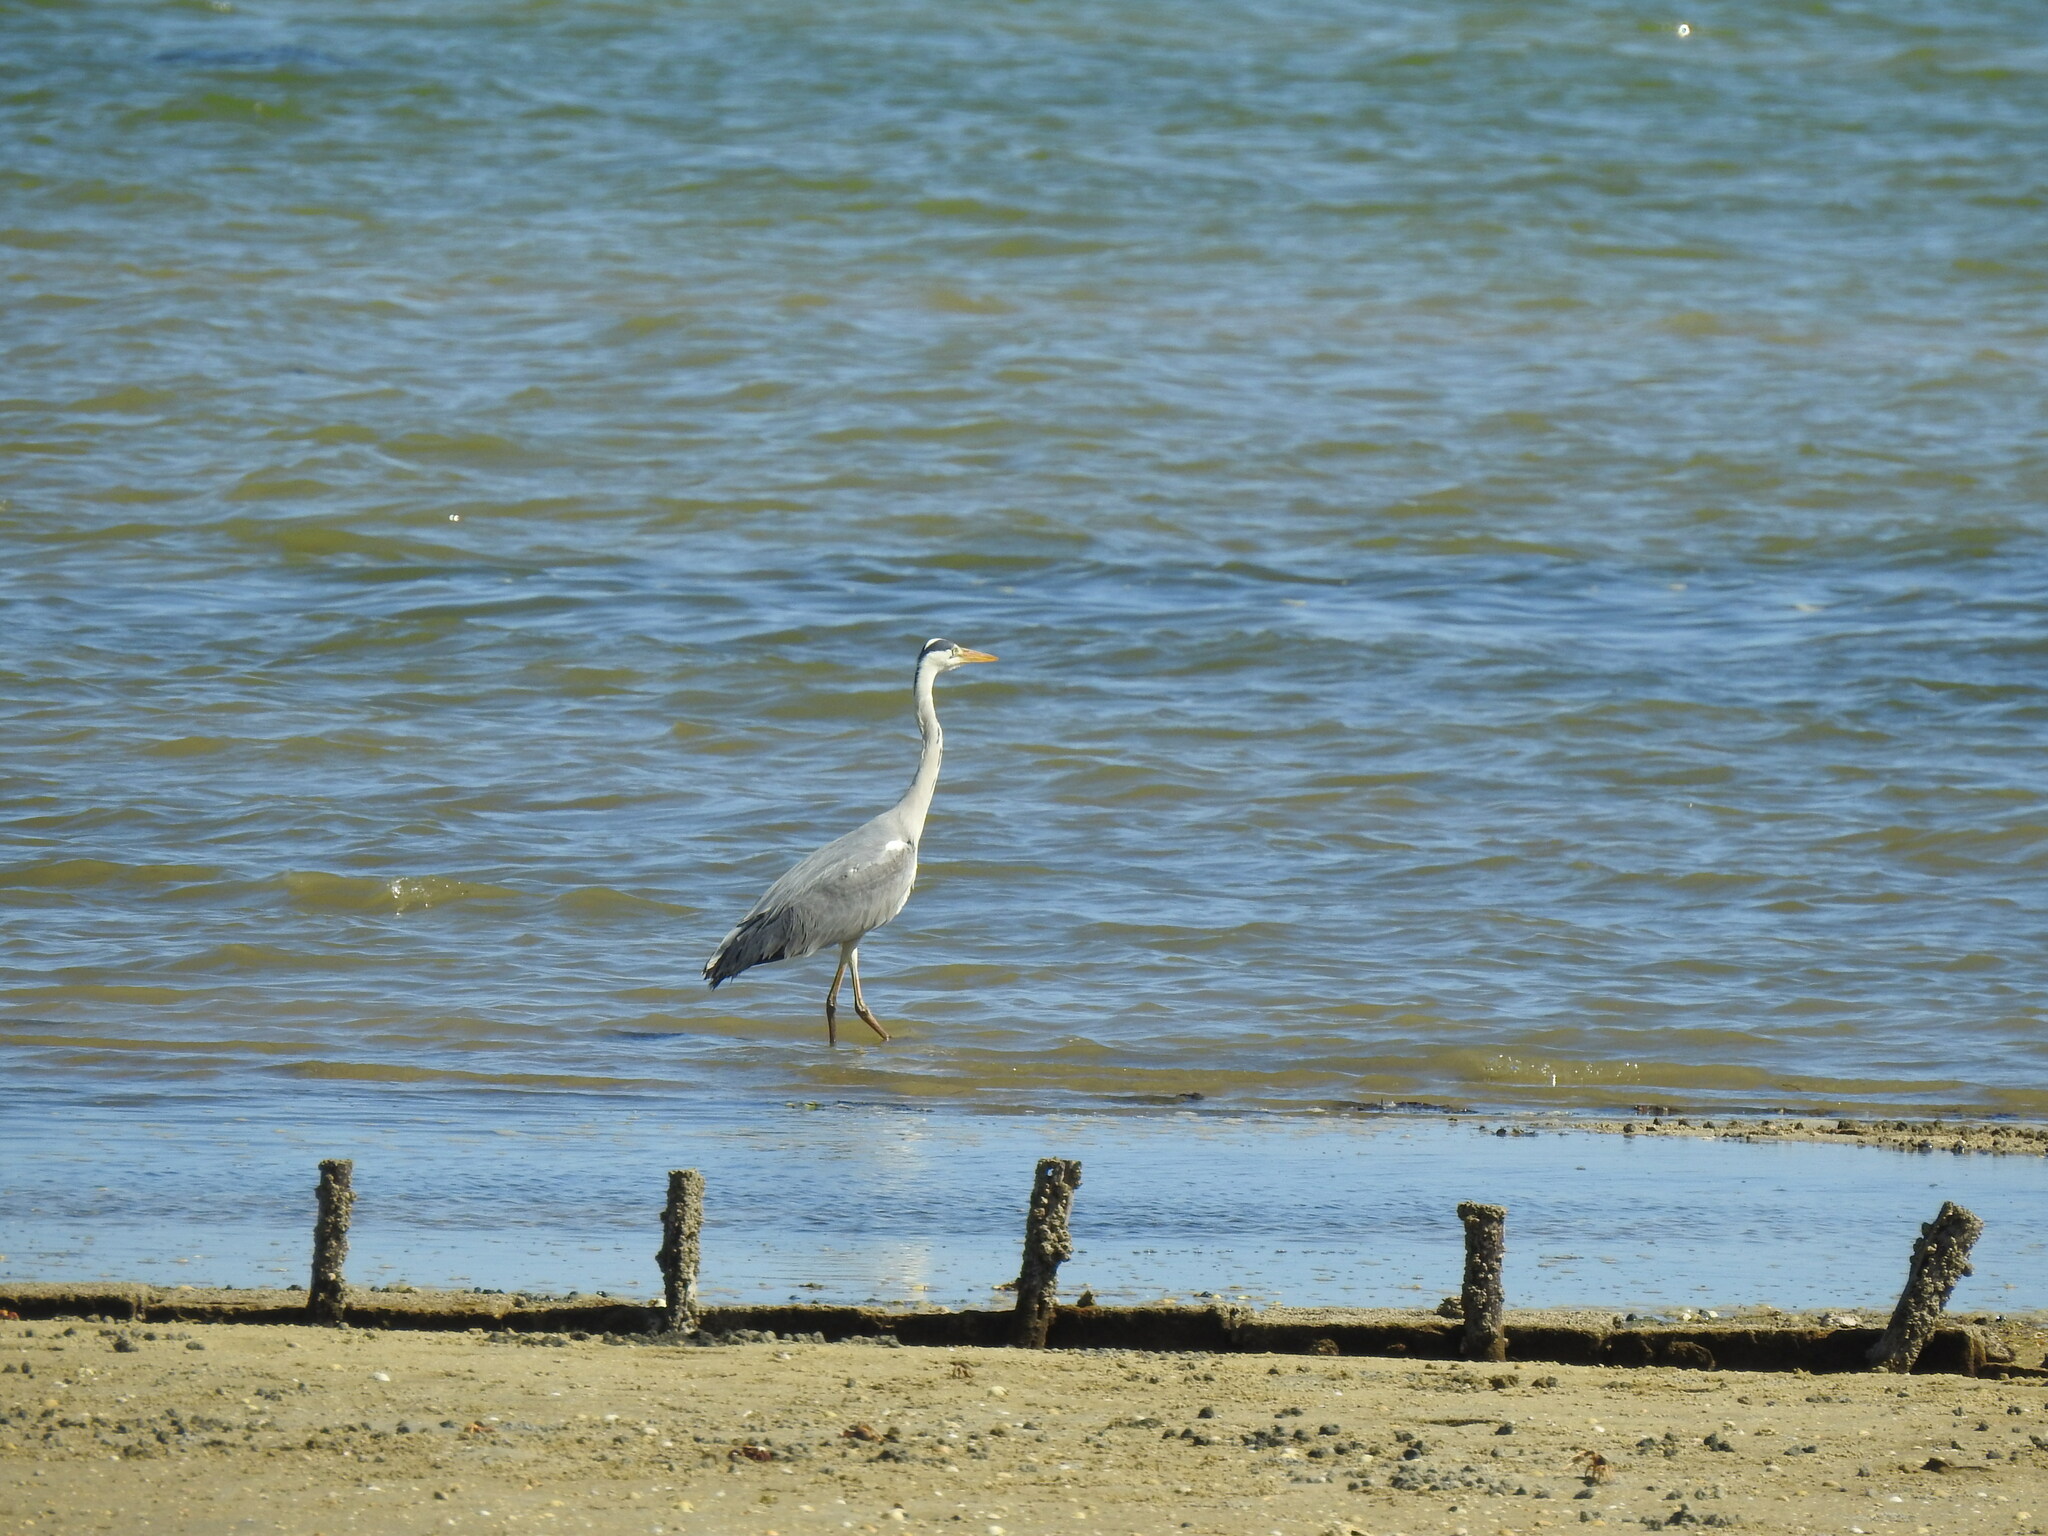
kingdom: Animalia
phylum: Chordata
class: Aves
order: Pelecaniformes
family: Ardeidae
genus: Ardea
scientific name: Ardea cinerea
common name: Grey heron
